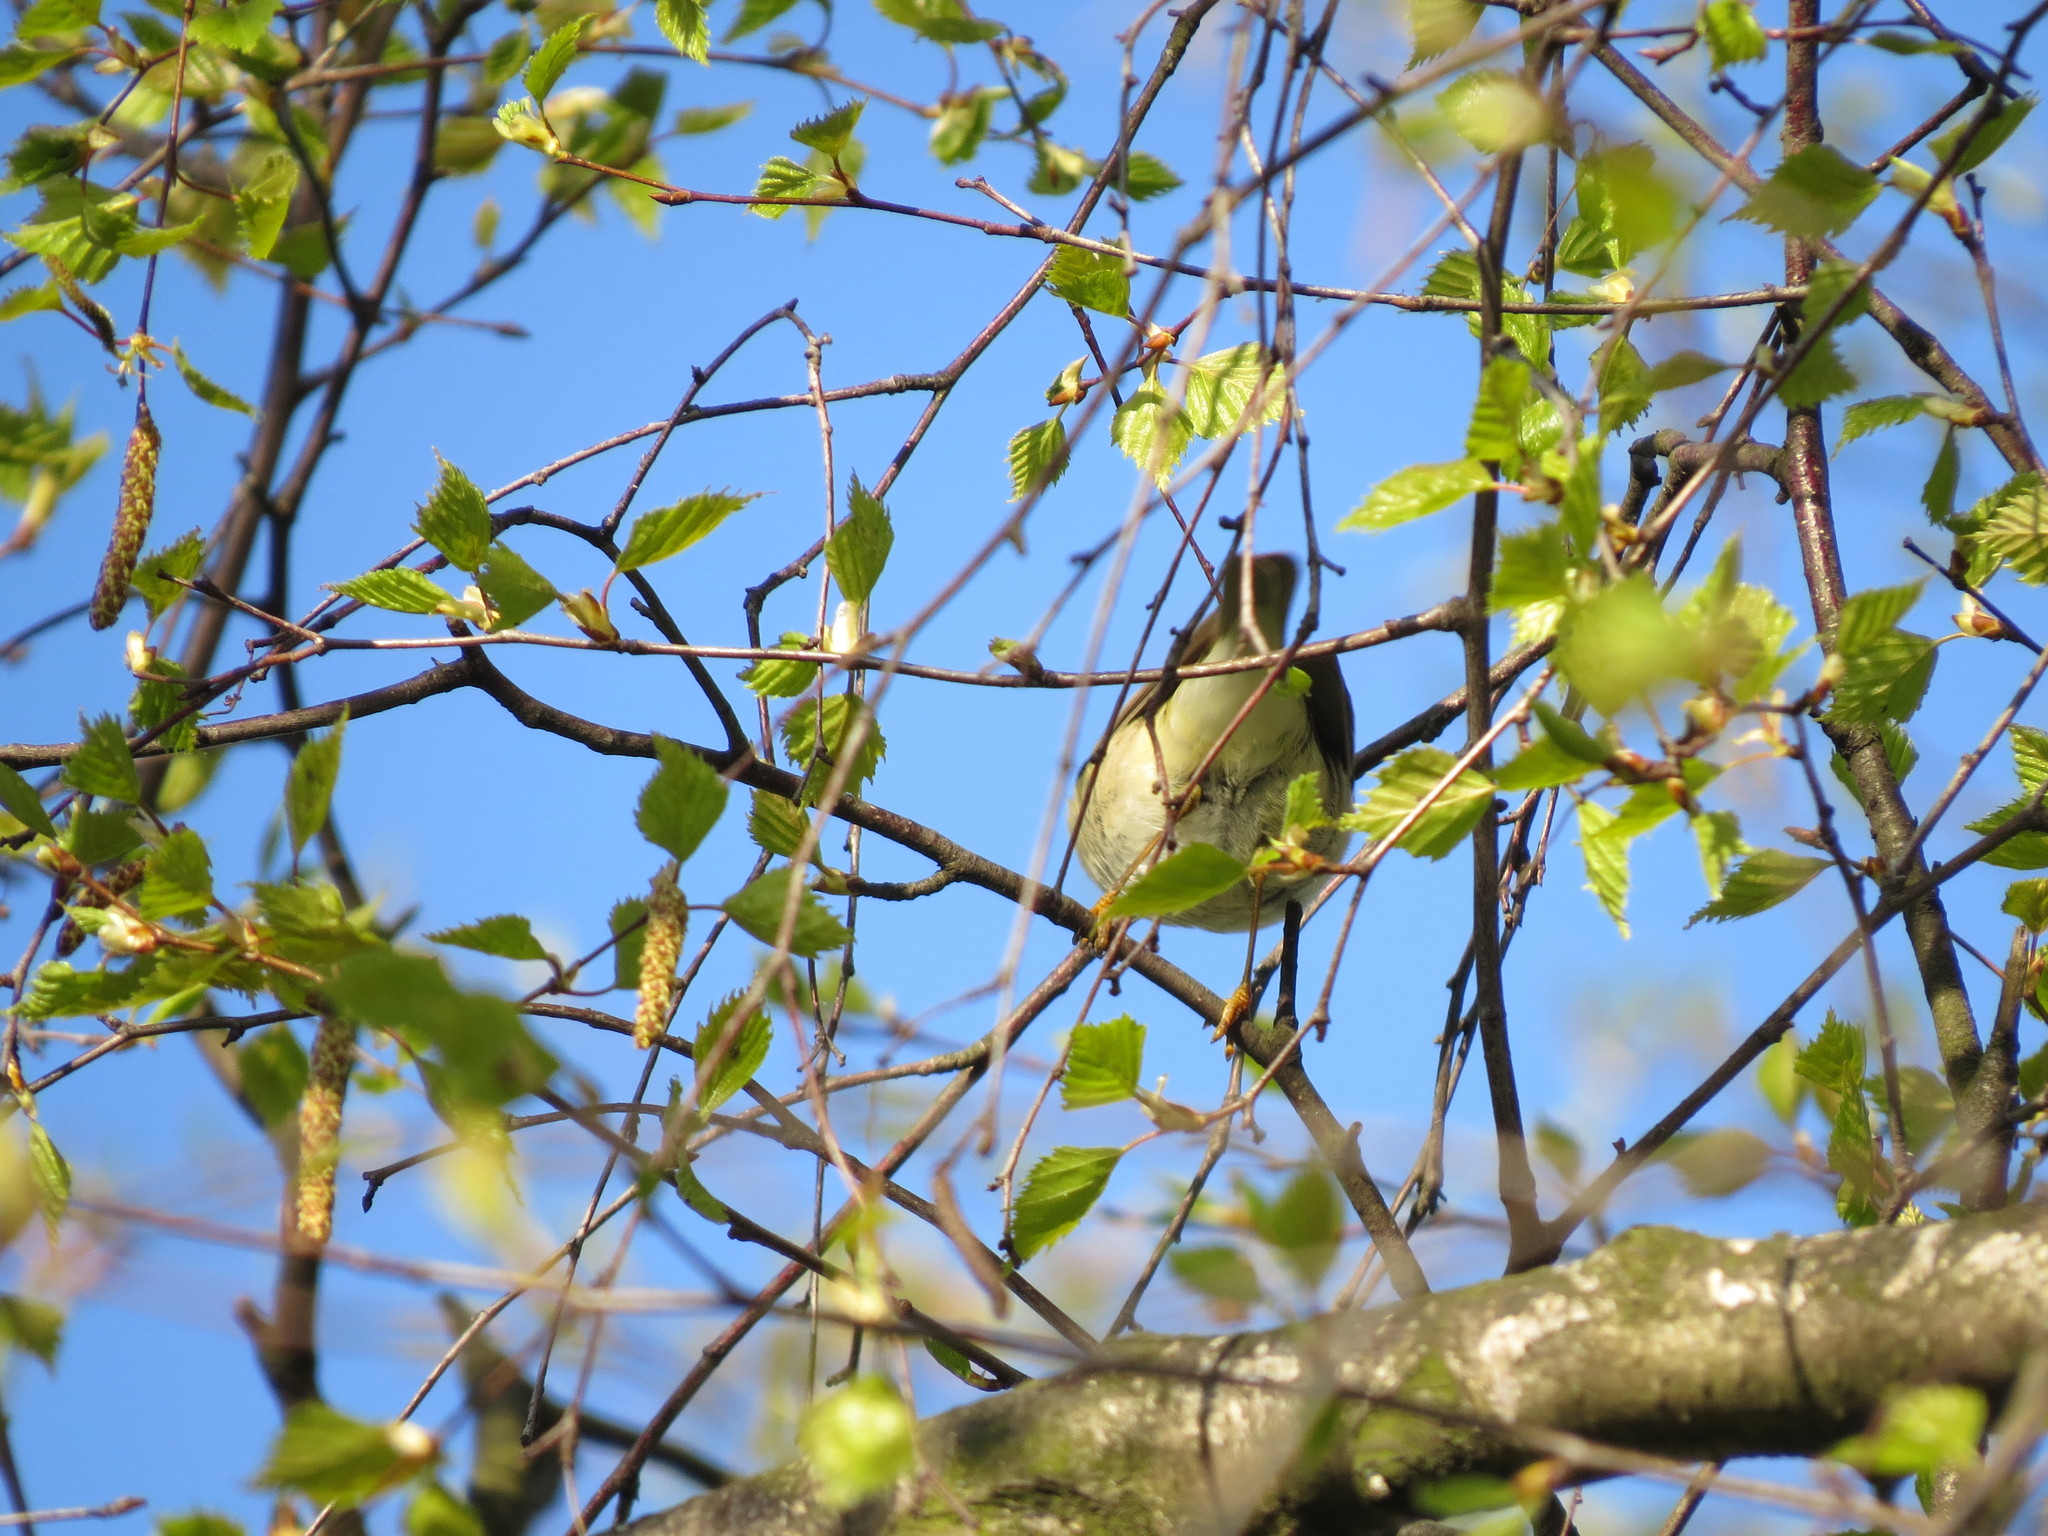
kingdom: Animalia
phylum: Chordata
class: Aves
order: Passeriformes
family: Phylloscopidae
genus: Phylloscopus
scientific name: Phylloscopus trochilus
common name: Willow warbler
